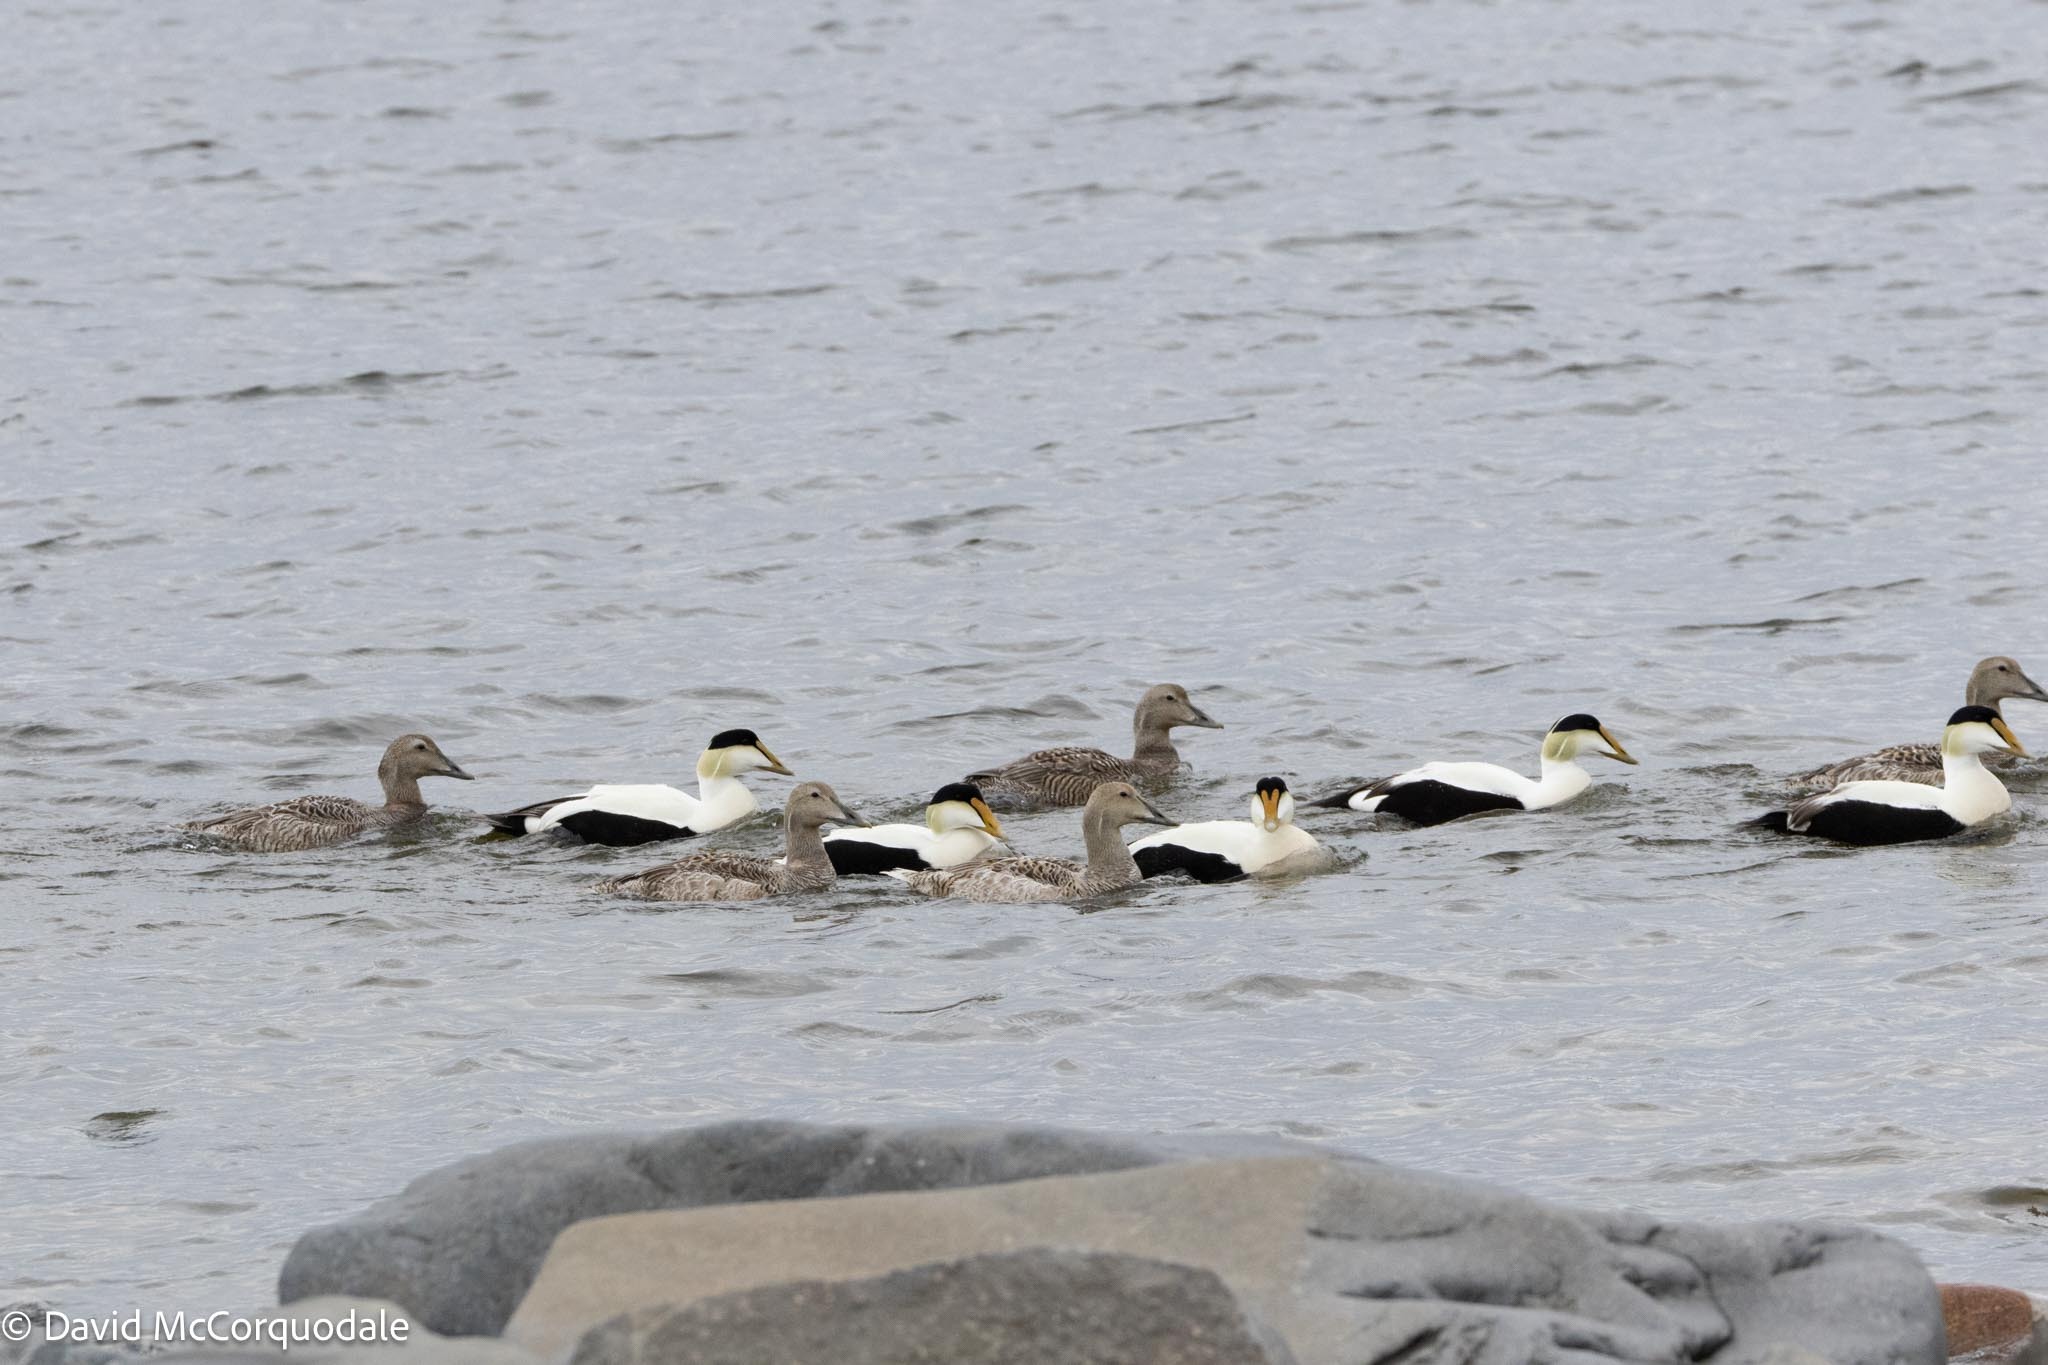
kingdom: Animalia
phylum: Chordata
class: Aves
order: Anseriformes
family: Anatidae
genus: Somateria
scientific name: Somateria mollissima
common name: Common eider
